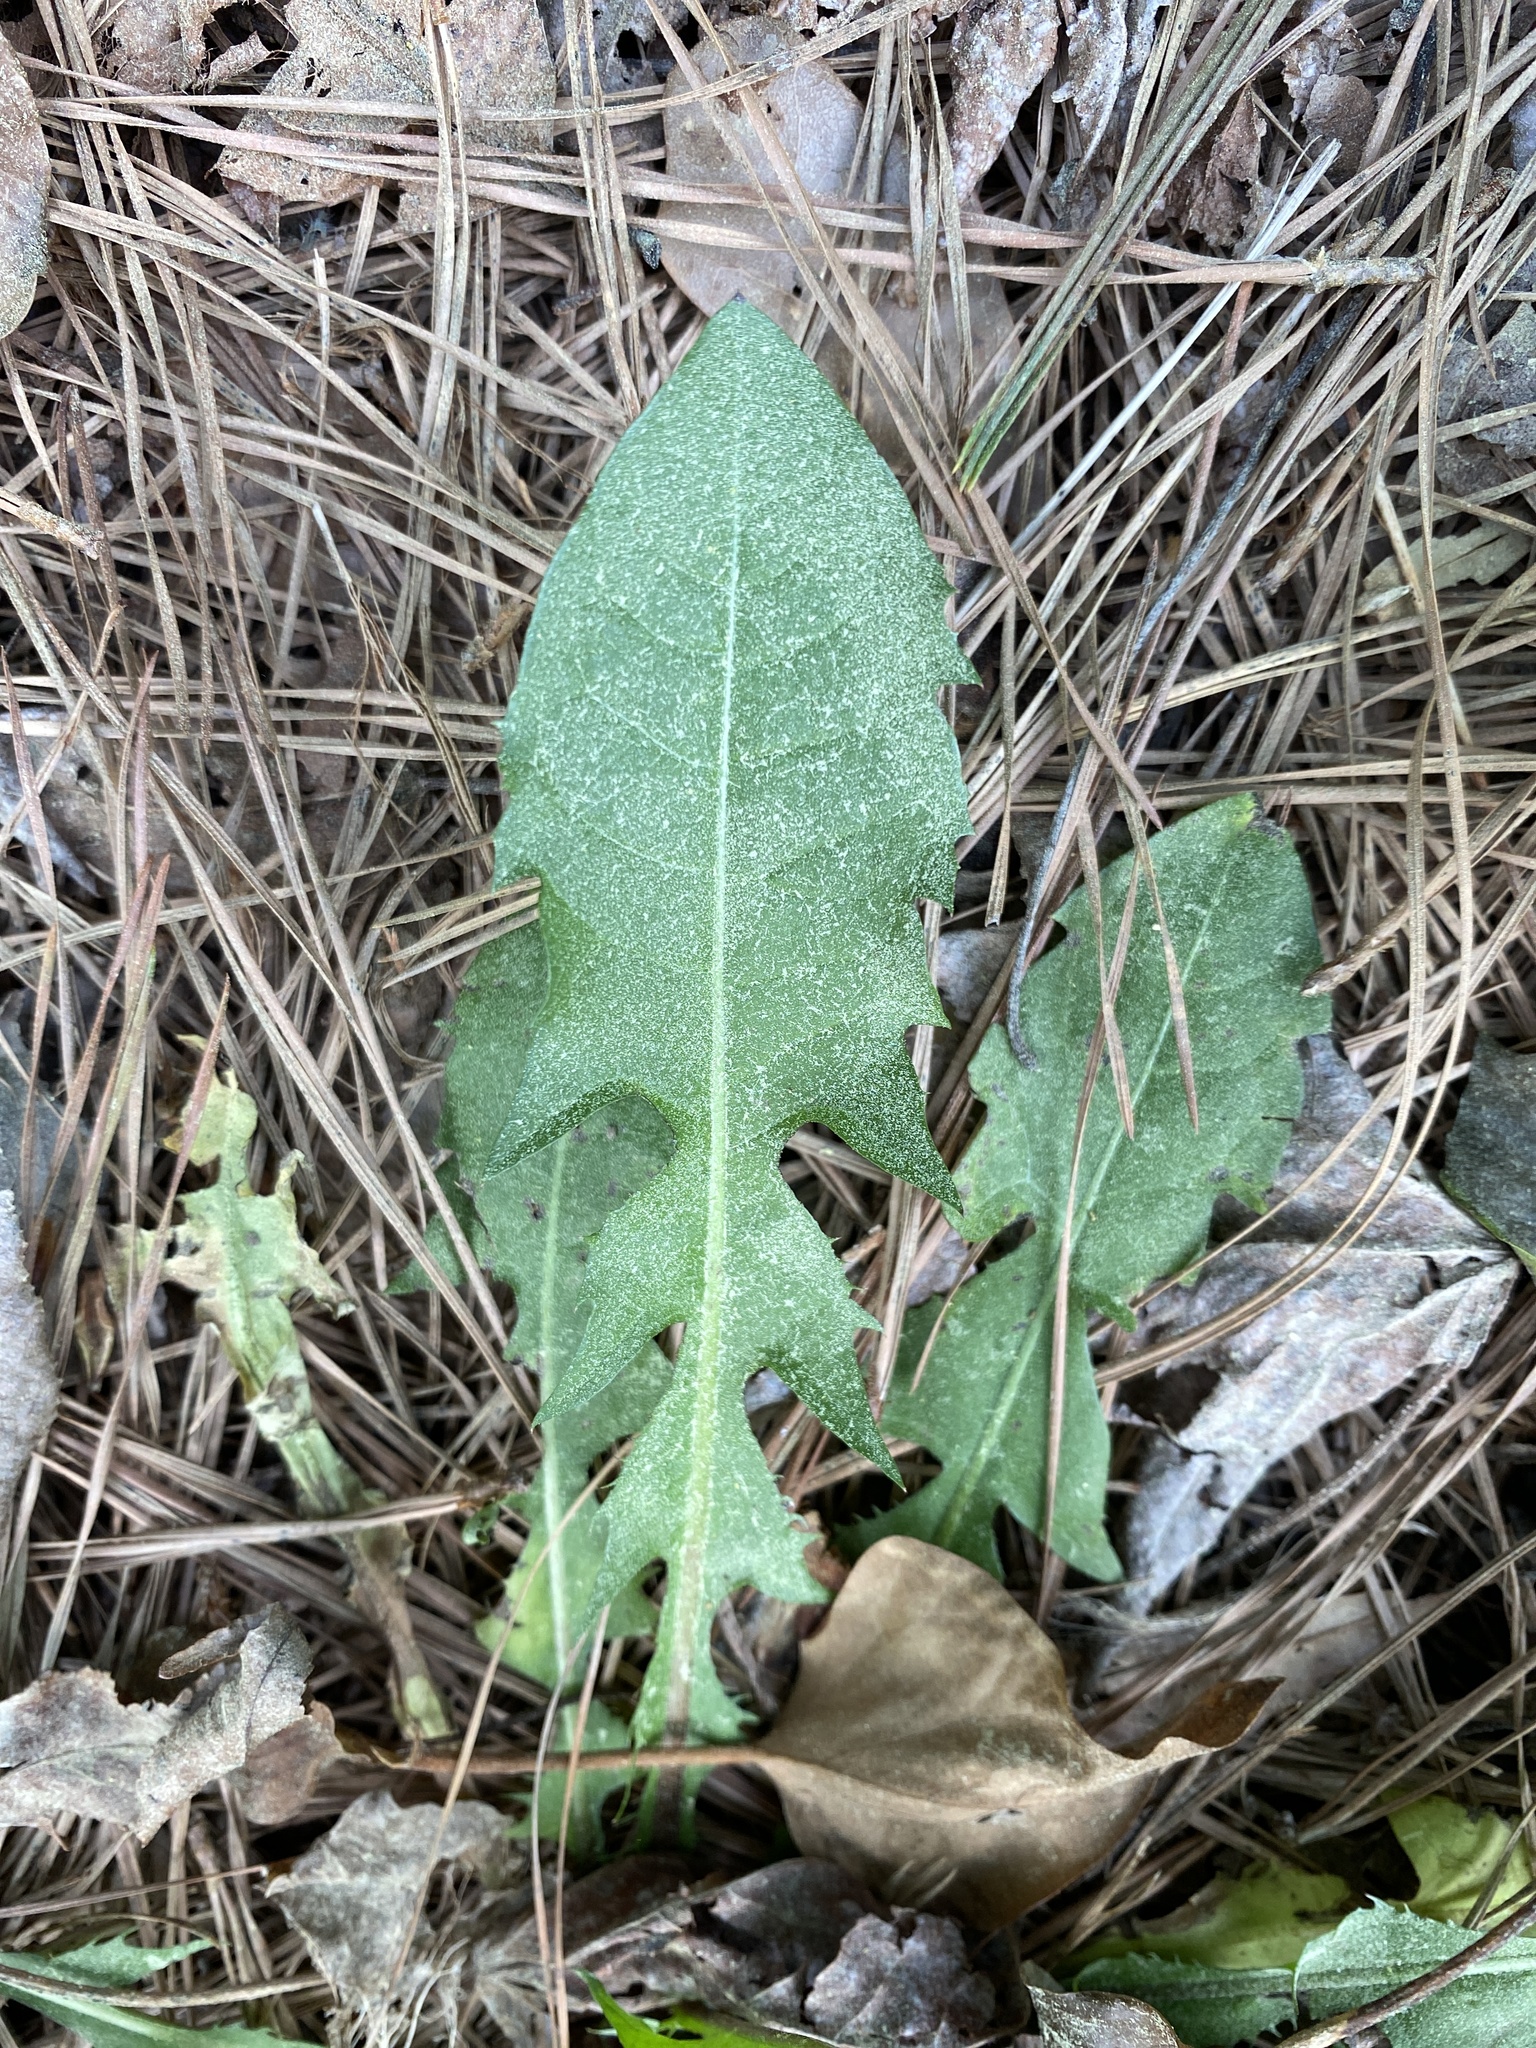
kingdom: Plantae
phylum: Tracheophyta
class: Magnoliopsida
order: Asterales
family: Asteraceae
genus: Taraxacum
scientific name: Taraxacum officinale
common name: Common dandelion
